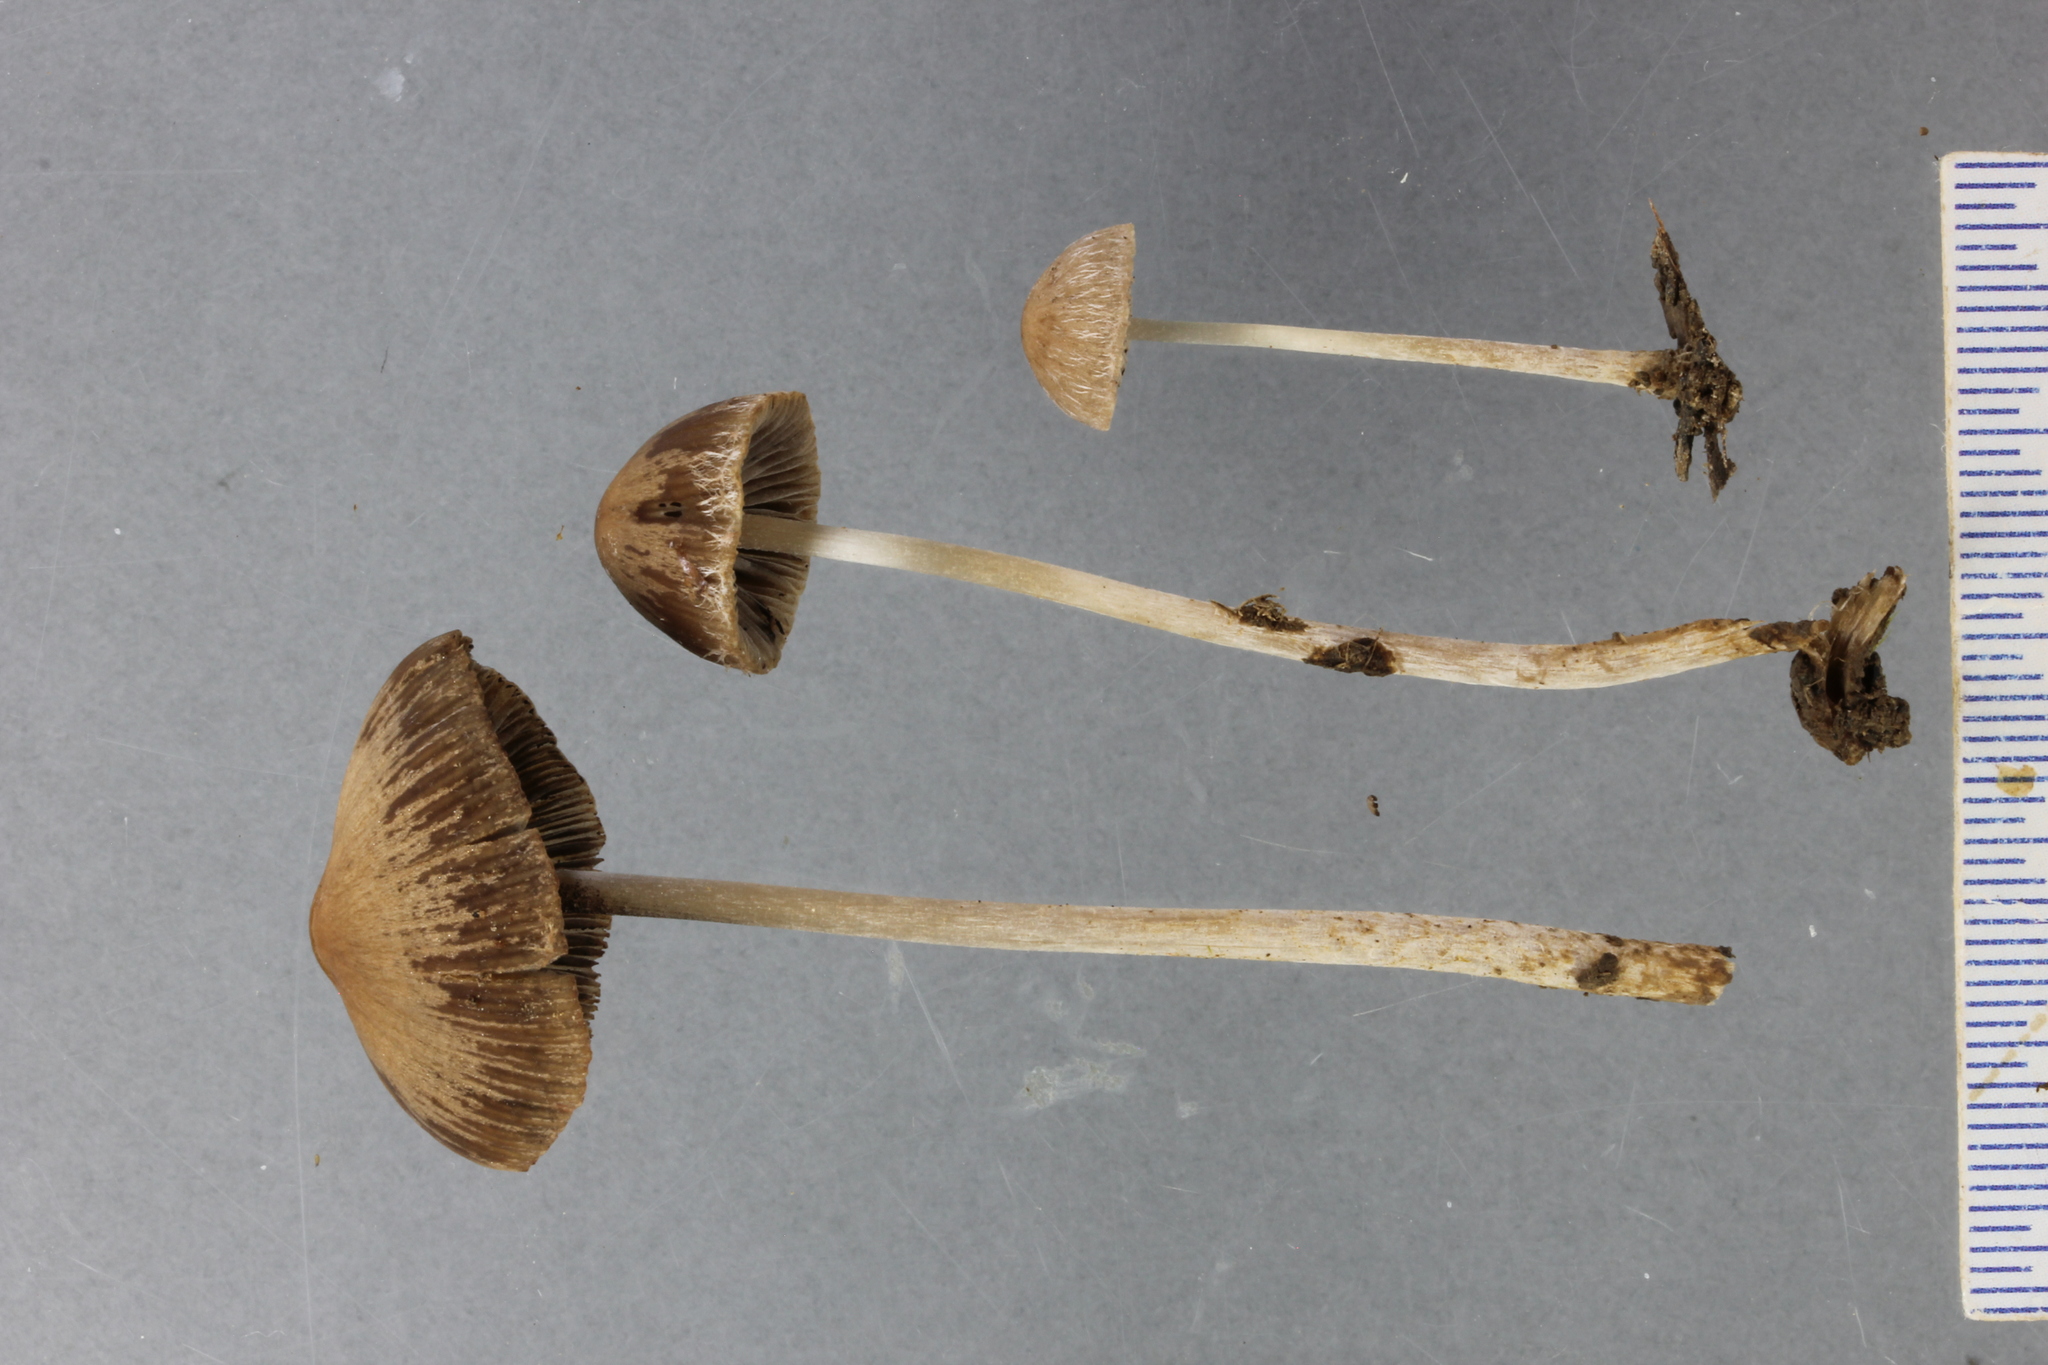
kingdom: Fungi
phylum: Basidiomycota
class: Agaricomycetes
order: Agaricales
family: Psathyrellaceae
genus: Psathyrella
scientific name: Psathyrella microrhiza
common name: Rootlet brittlestem
